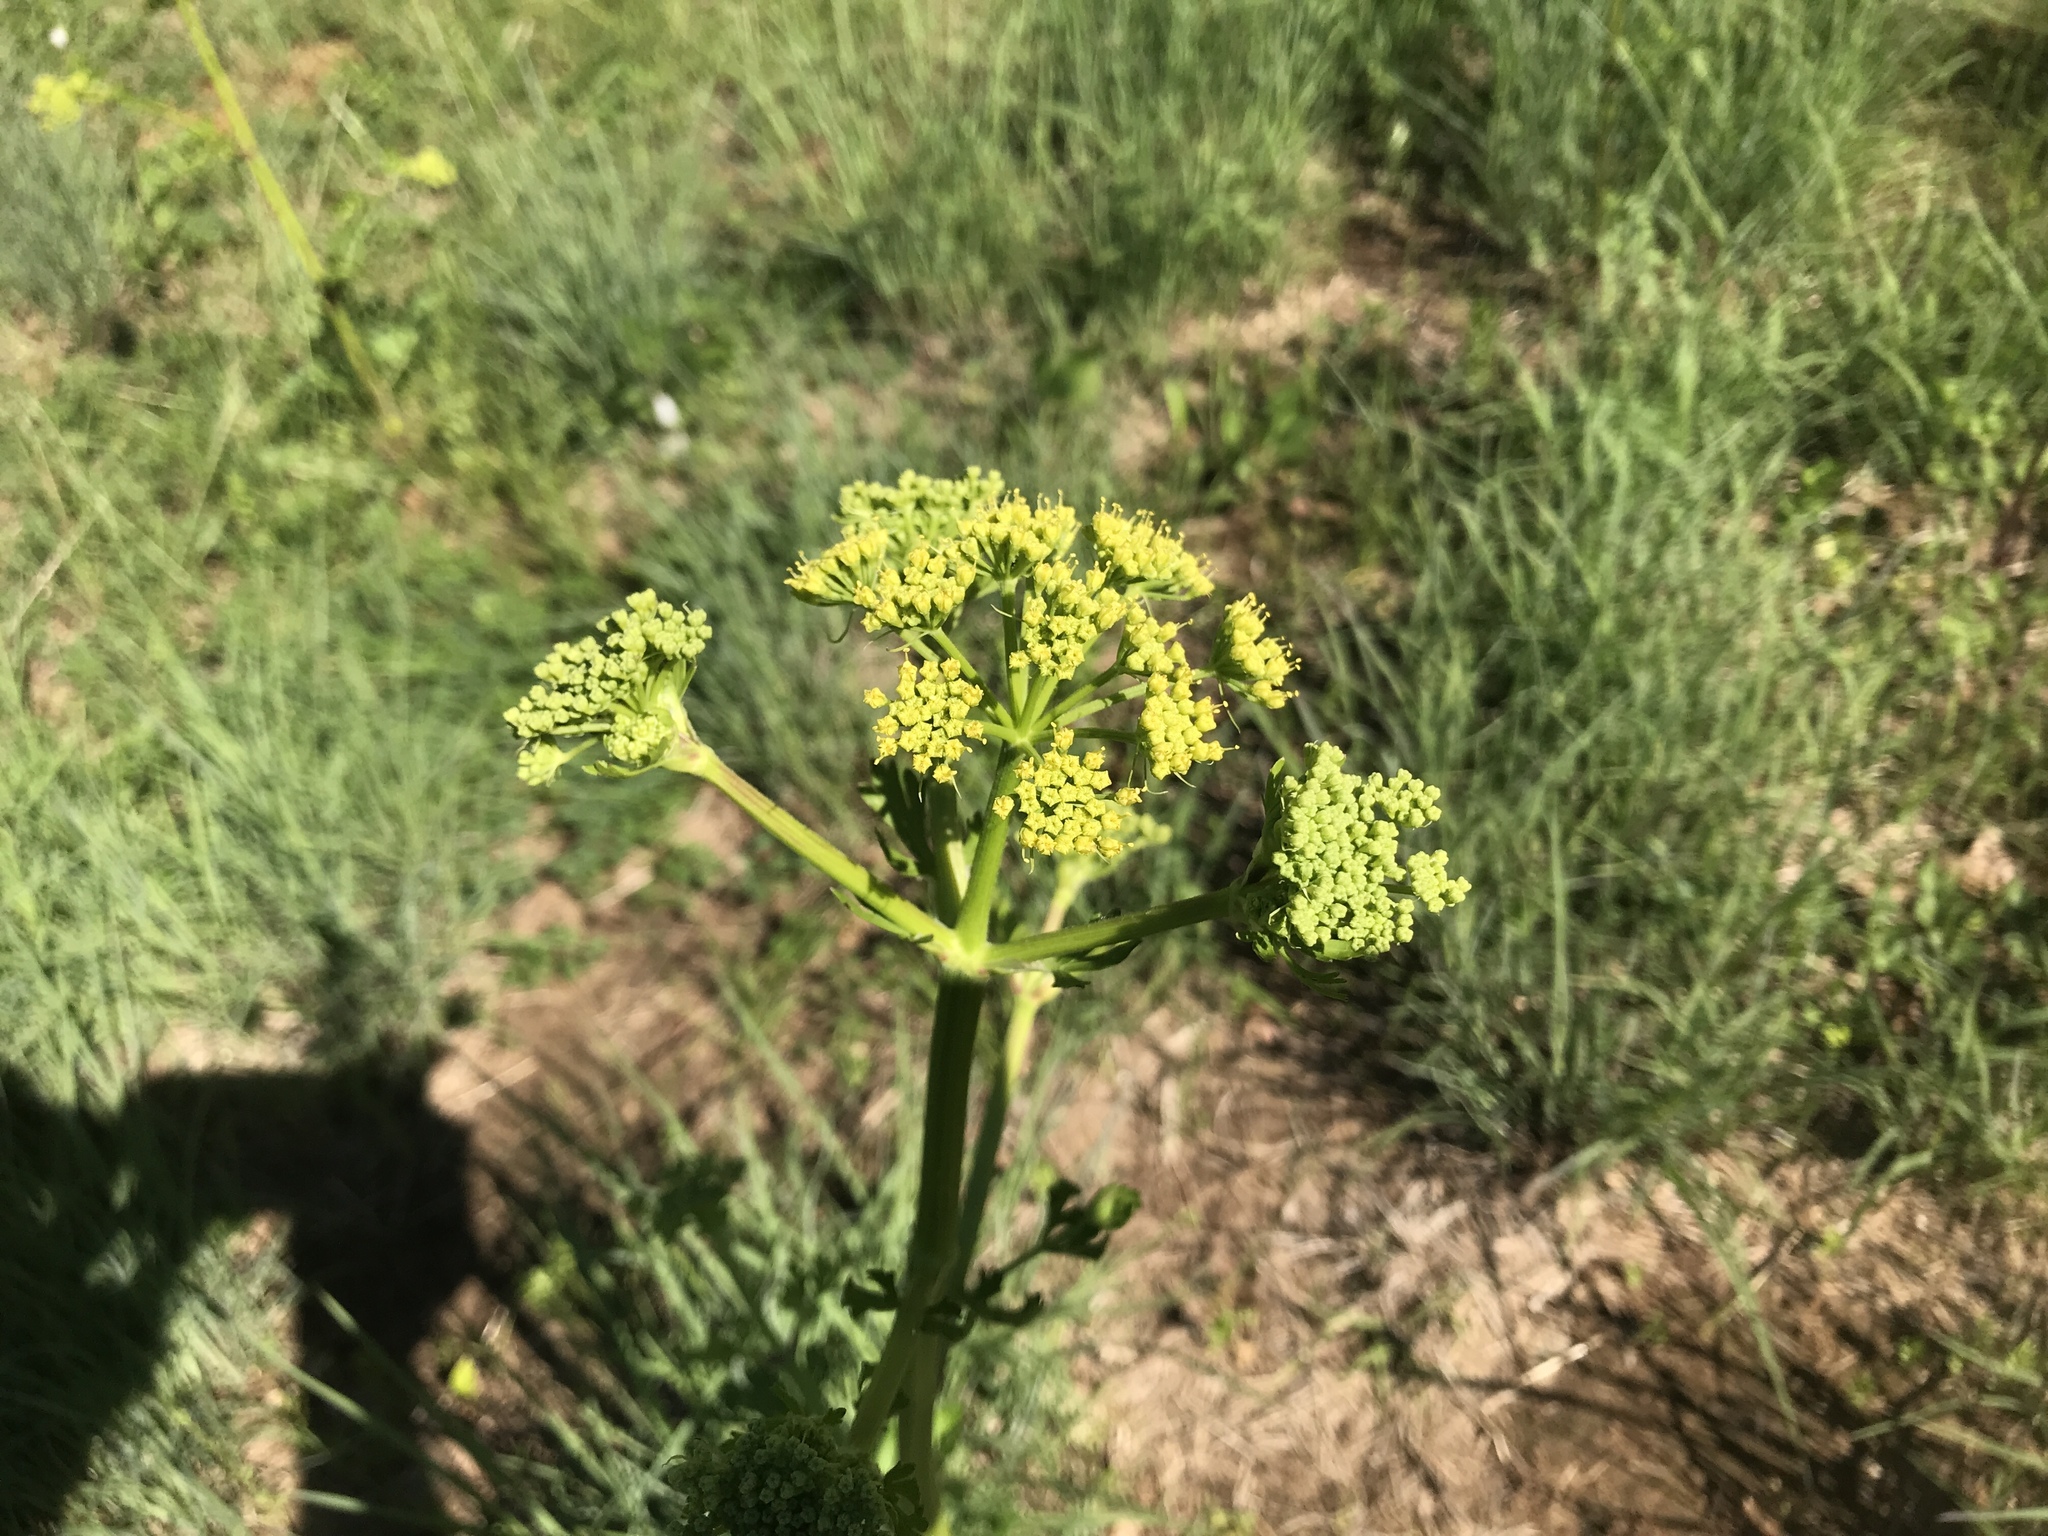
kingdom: Plantae
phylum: Tracheophyta
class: Magnoliopsida
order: Apiales
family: Apiaceae
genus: Polytaenia
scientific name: Polytaenia texana
